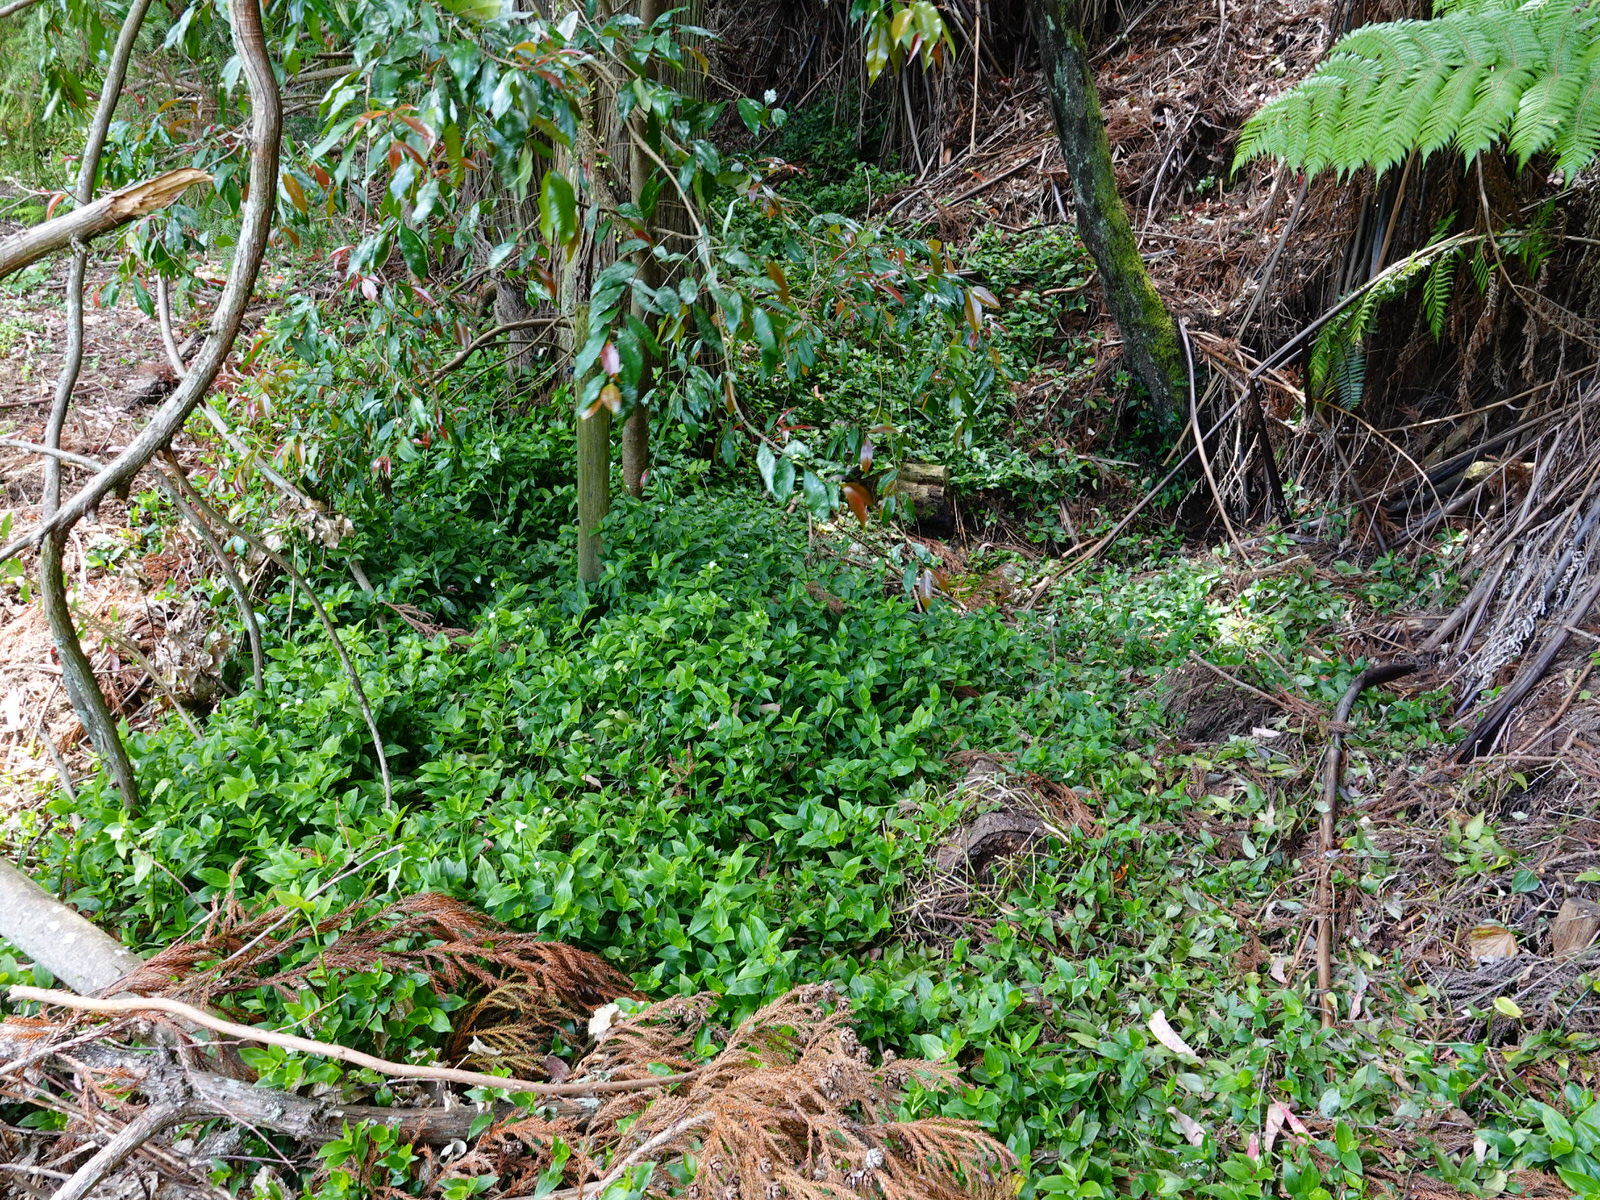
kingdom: Plantae
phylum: Tracheophyta
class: Liliopsida
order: Commelinales
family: Commelinaceae
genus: Tradescantia
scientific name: Tradescantia fluminensis
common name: Wandering-jew
